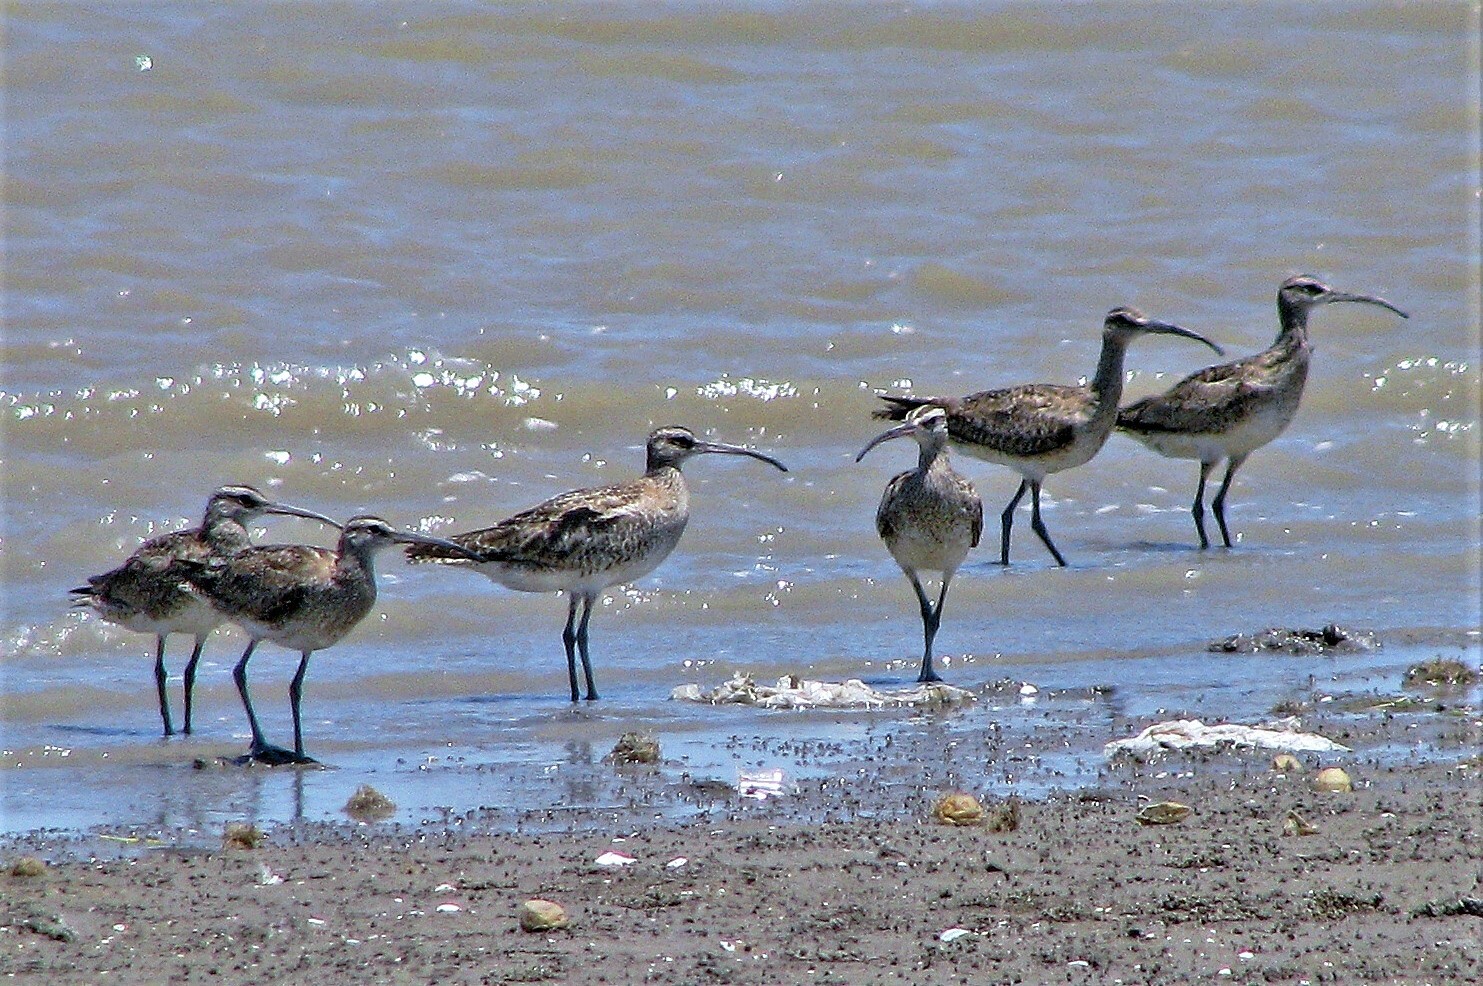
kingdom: Animalia
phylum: Chordata
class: Aves
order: Charadriiformes
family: Scolopacidae
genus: Numenius
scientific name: Numenius phaeopus
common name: Whimbrel
